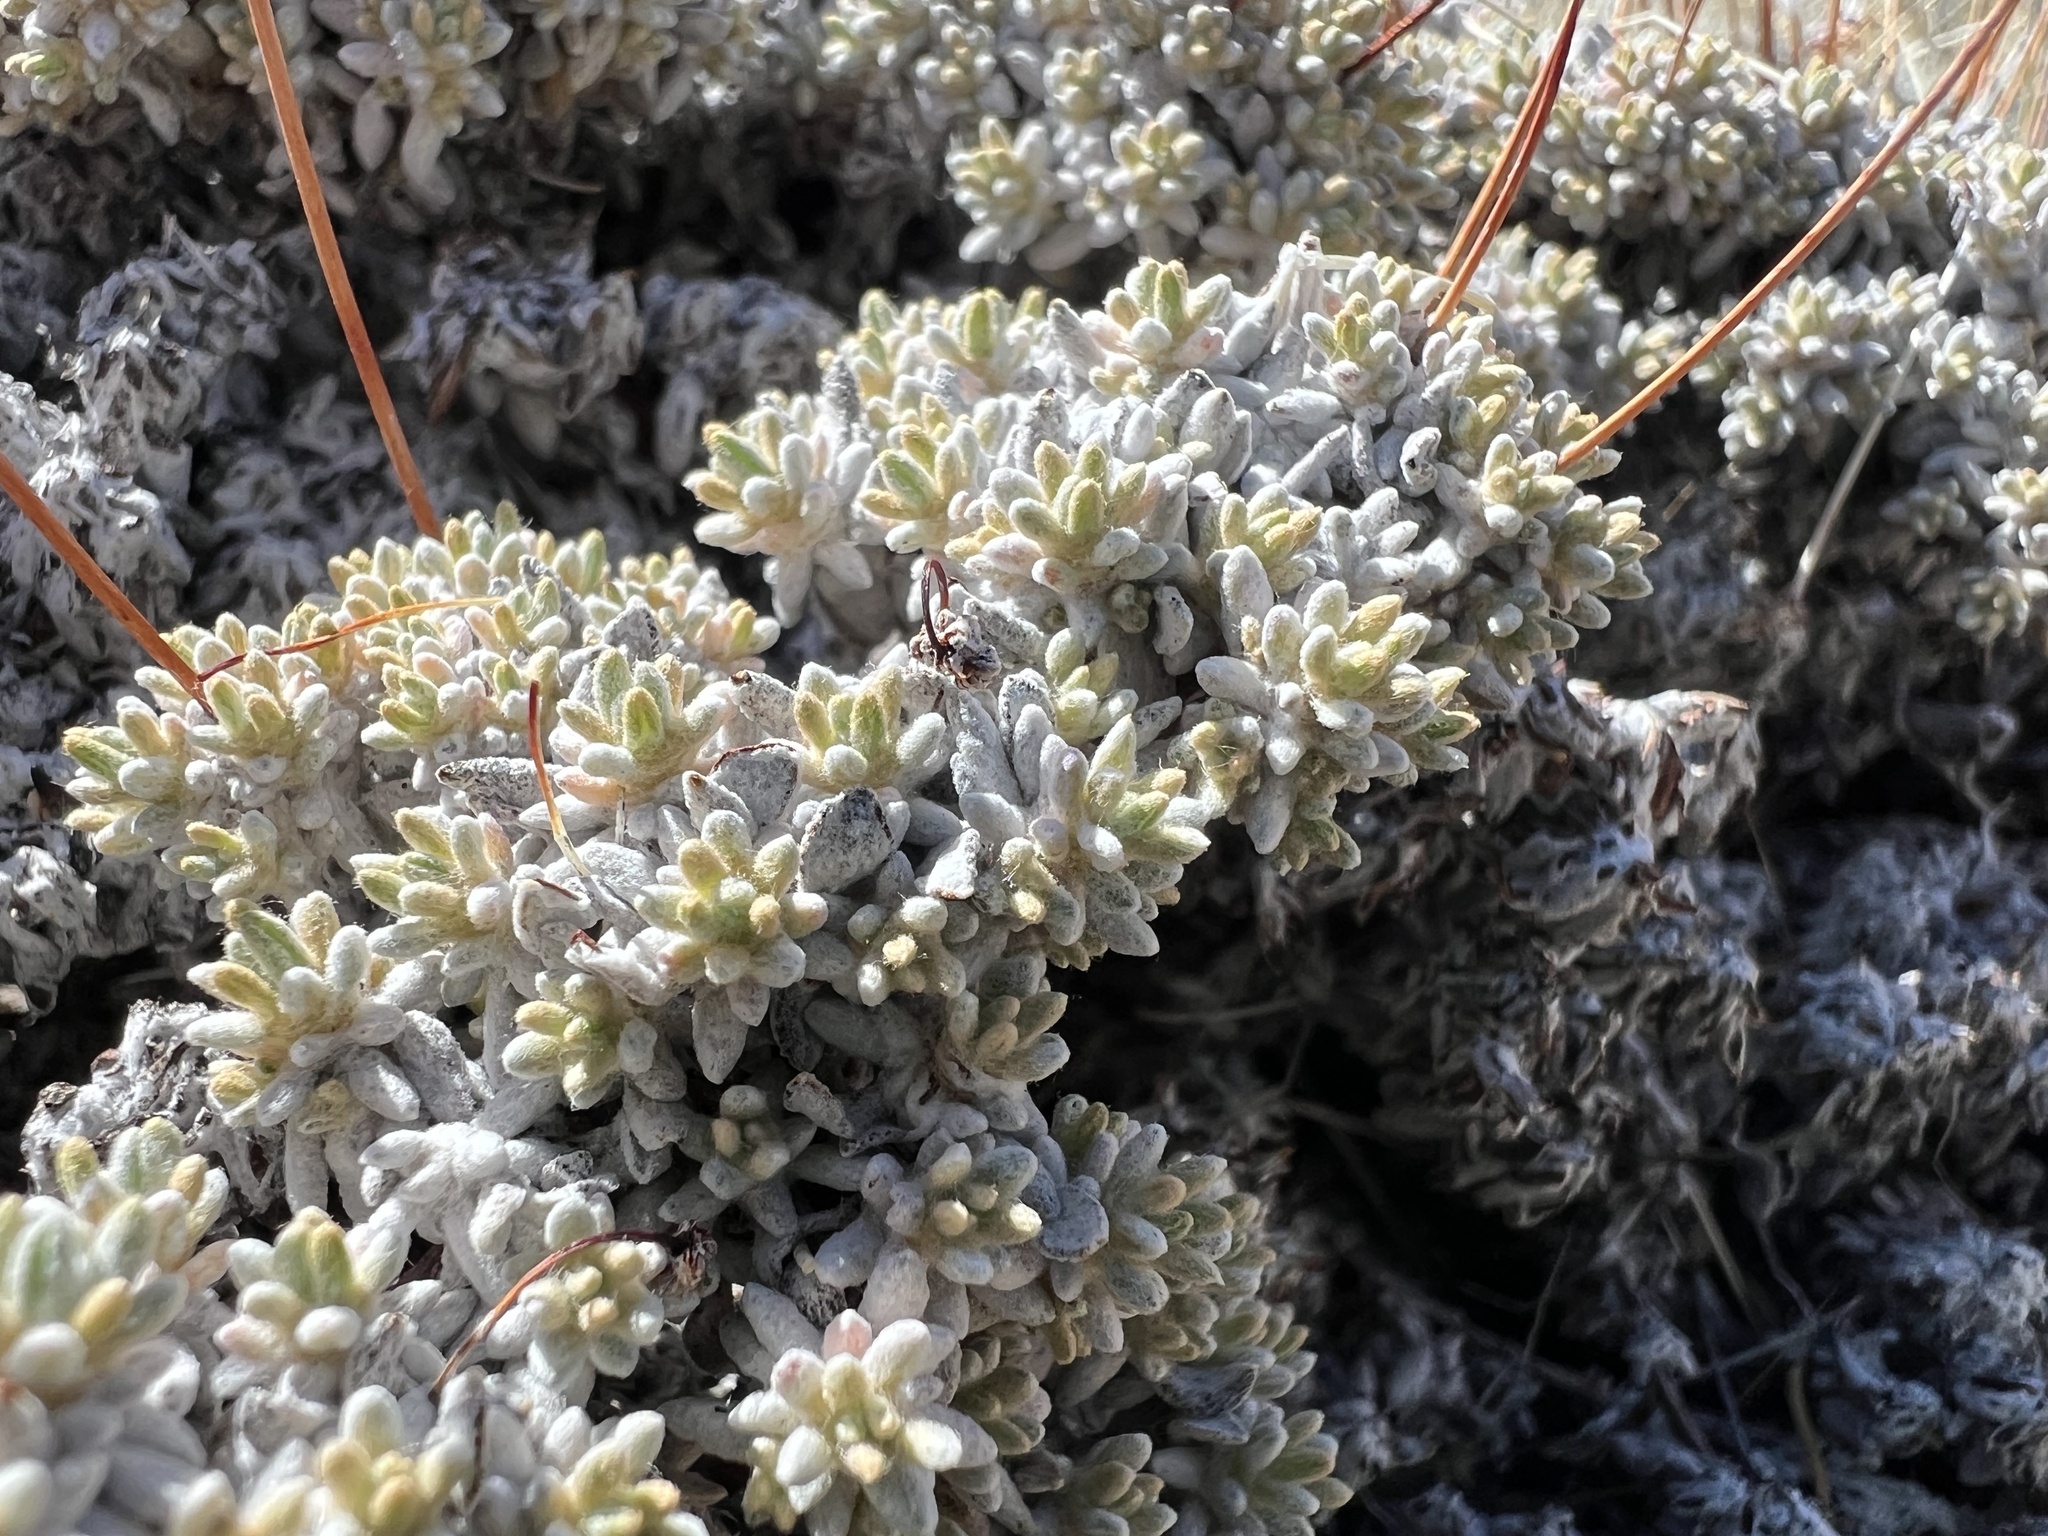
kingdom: Plantae
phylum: Tracheophyta
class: Magnoliopsida
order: Caryophyllales
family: Polygonaceae
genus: Eriogonum
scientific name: Eriogonum kennedyi
